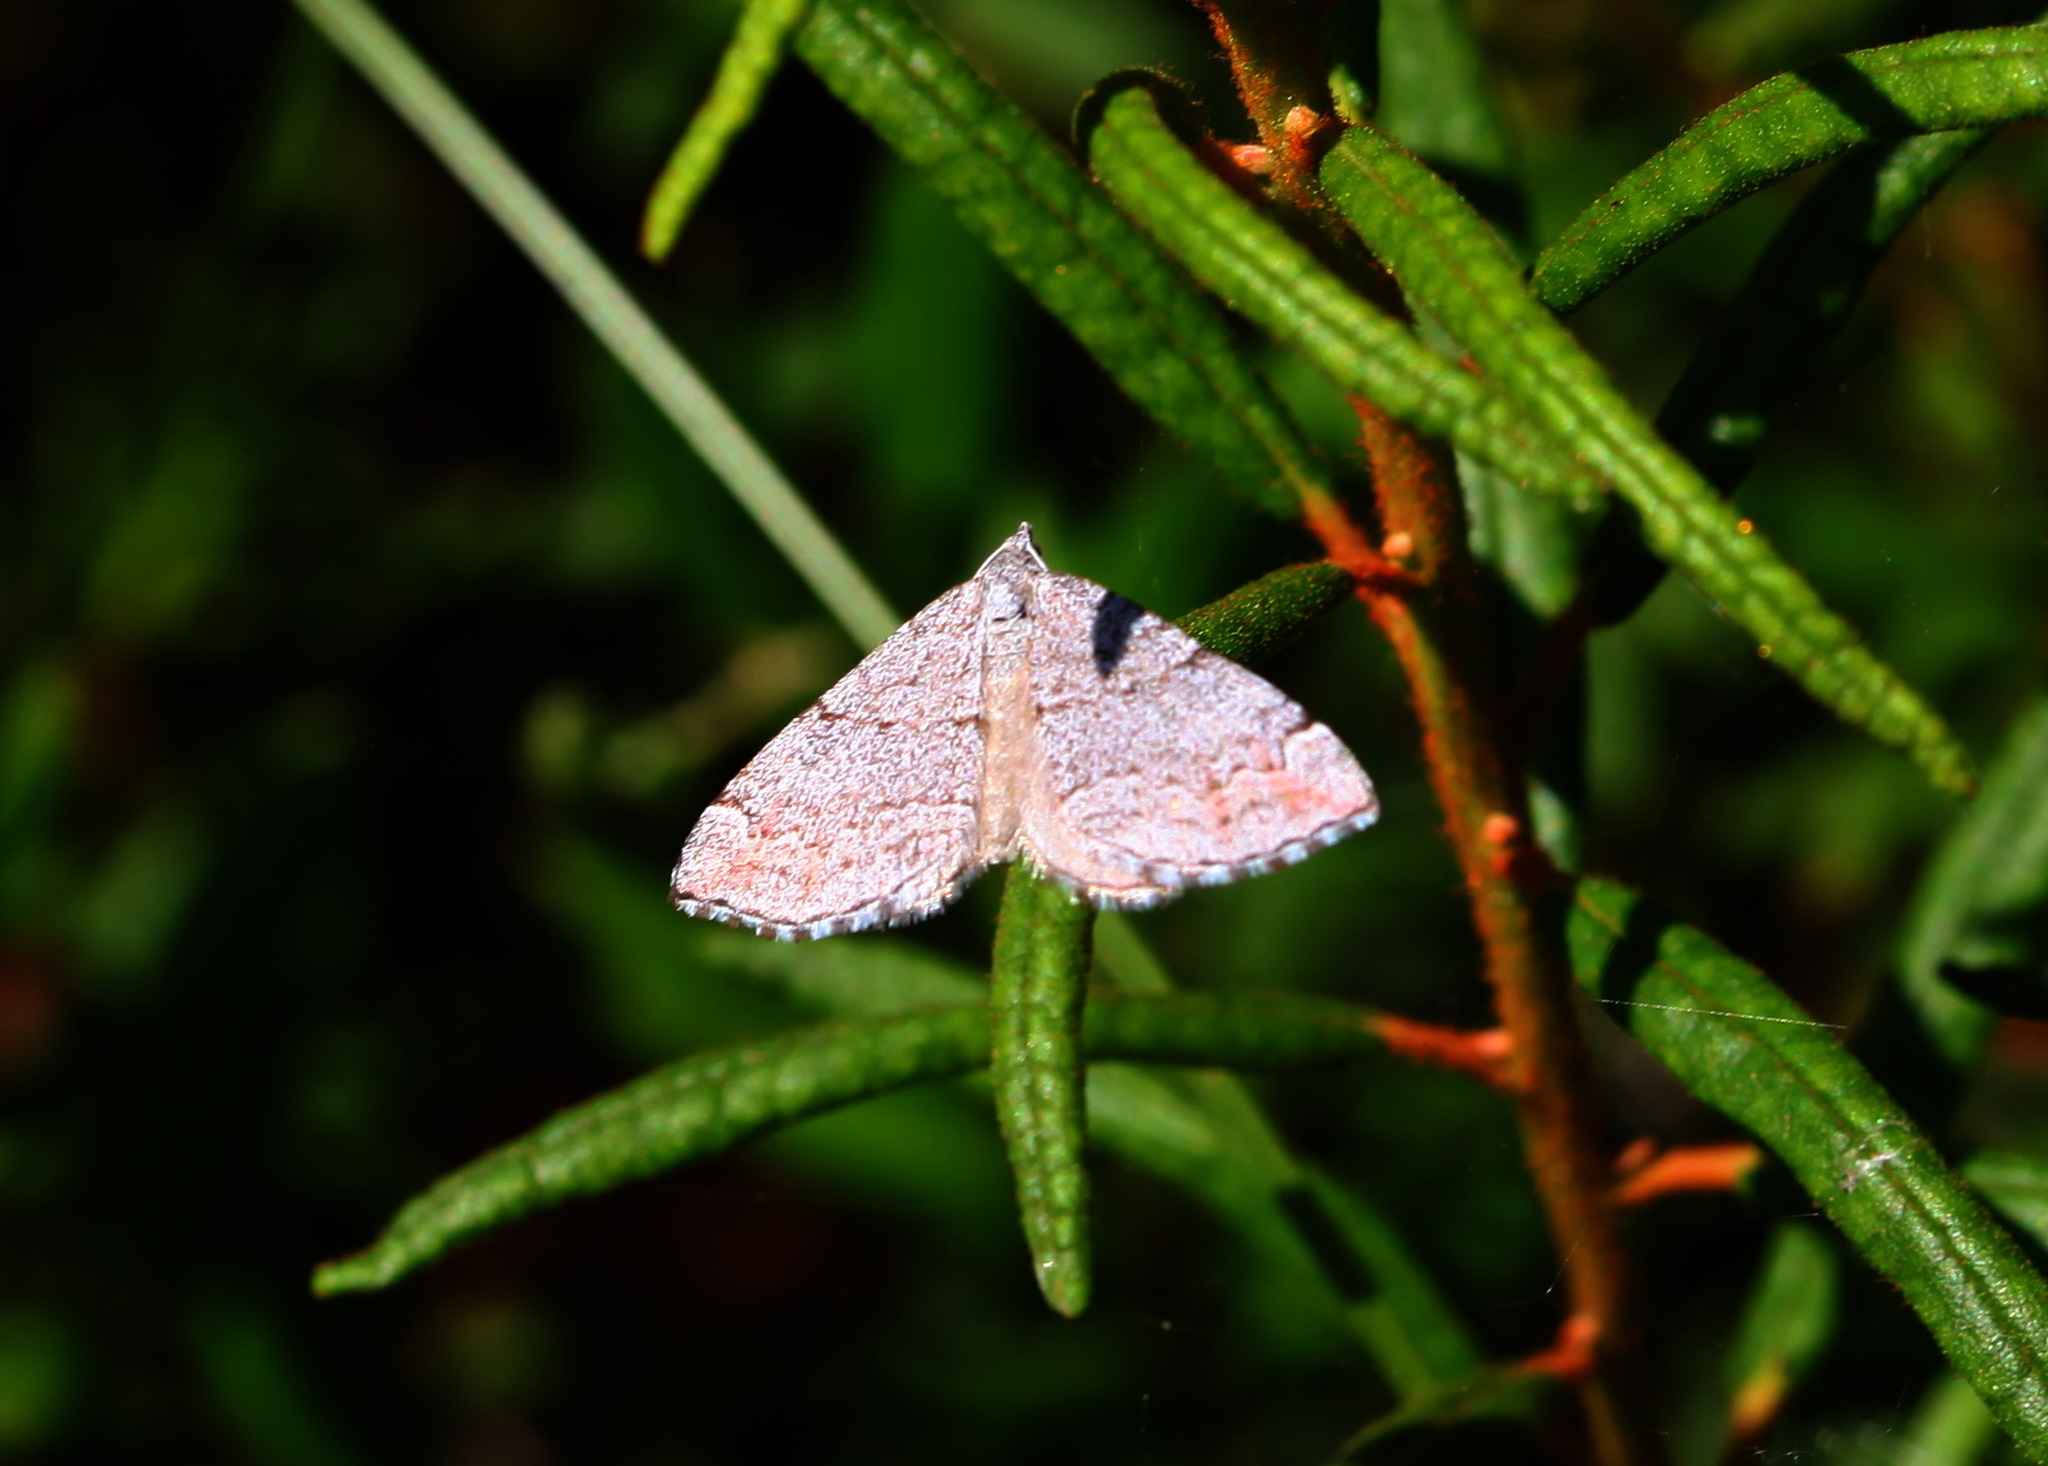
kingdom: Animalia
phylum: Arthropoda
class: Insecta
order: Lepidoptera
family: Geometridae
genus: Carsia
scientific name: Carsia sororiata
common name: Manchester treble-bar
